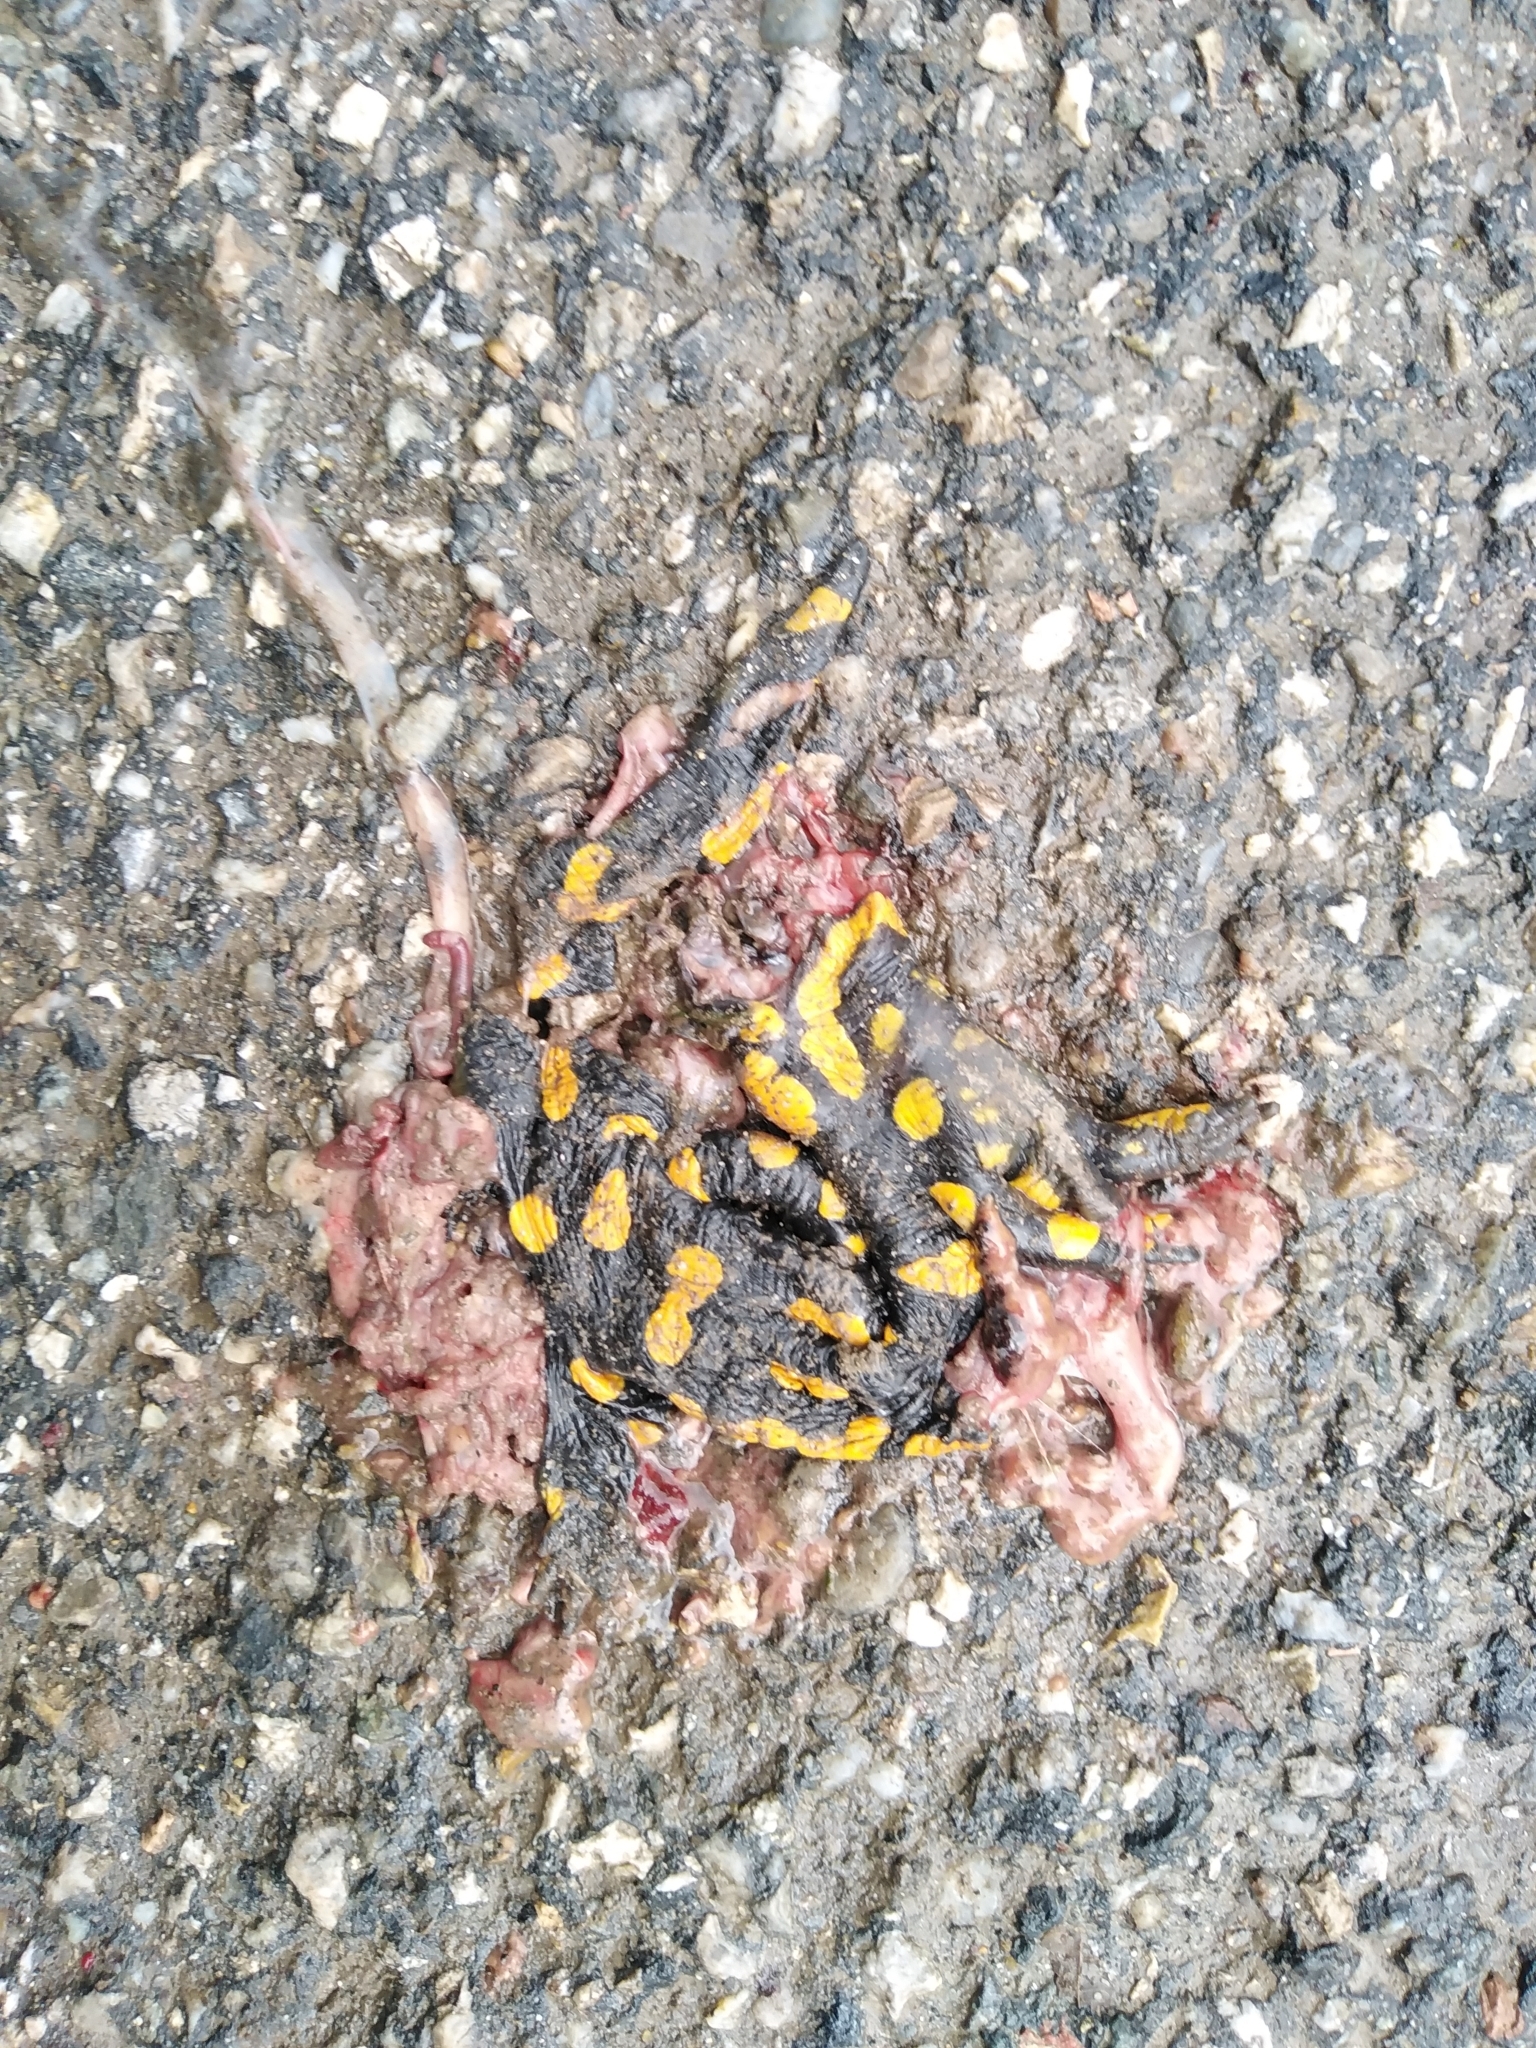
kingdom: Animalia
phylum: Chordata
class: Amphibia
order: Caudata
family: Salamandridae
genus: Salamandra
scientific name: Salamandra salamandra
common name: Fire salamander
